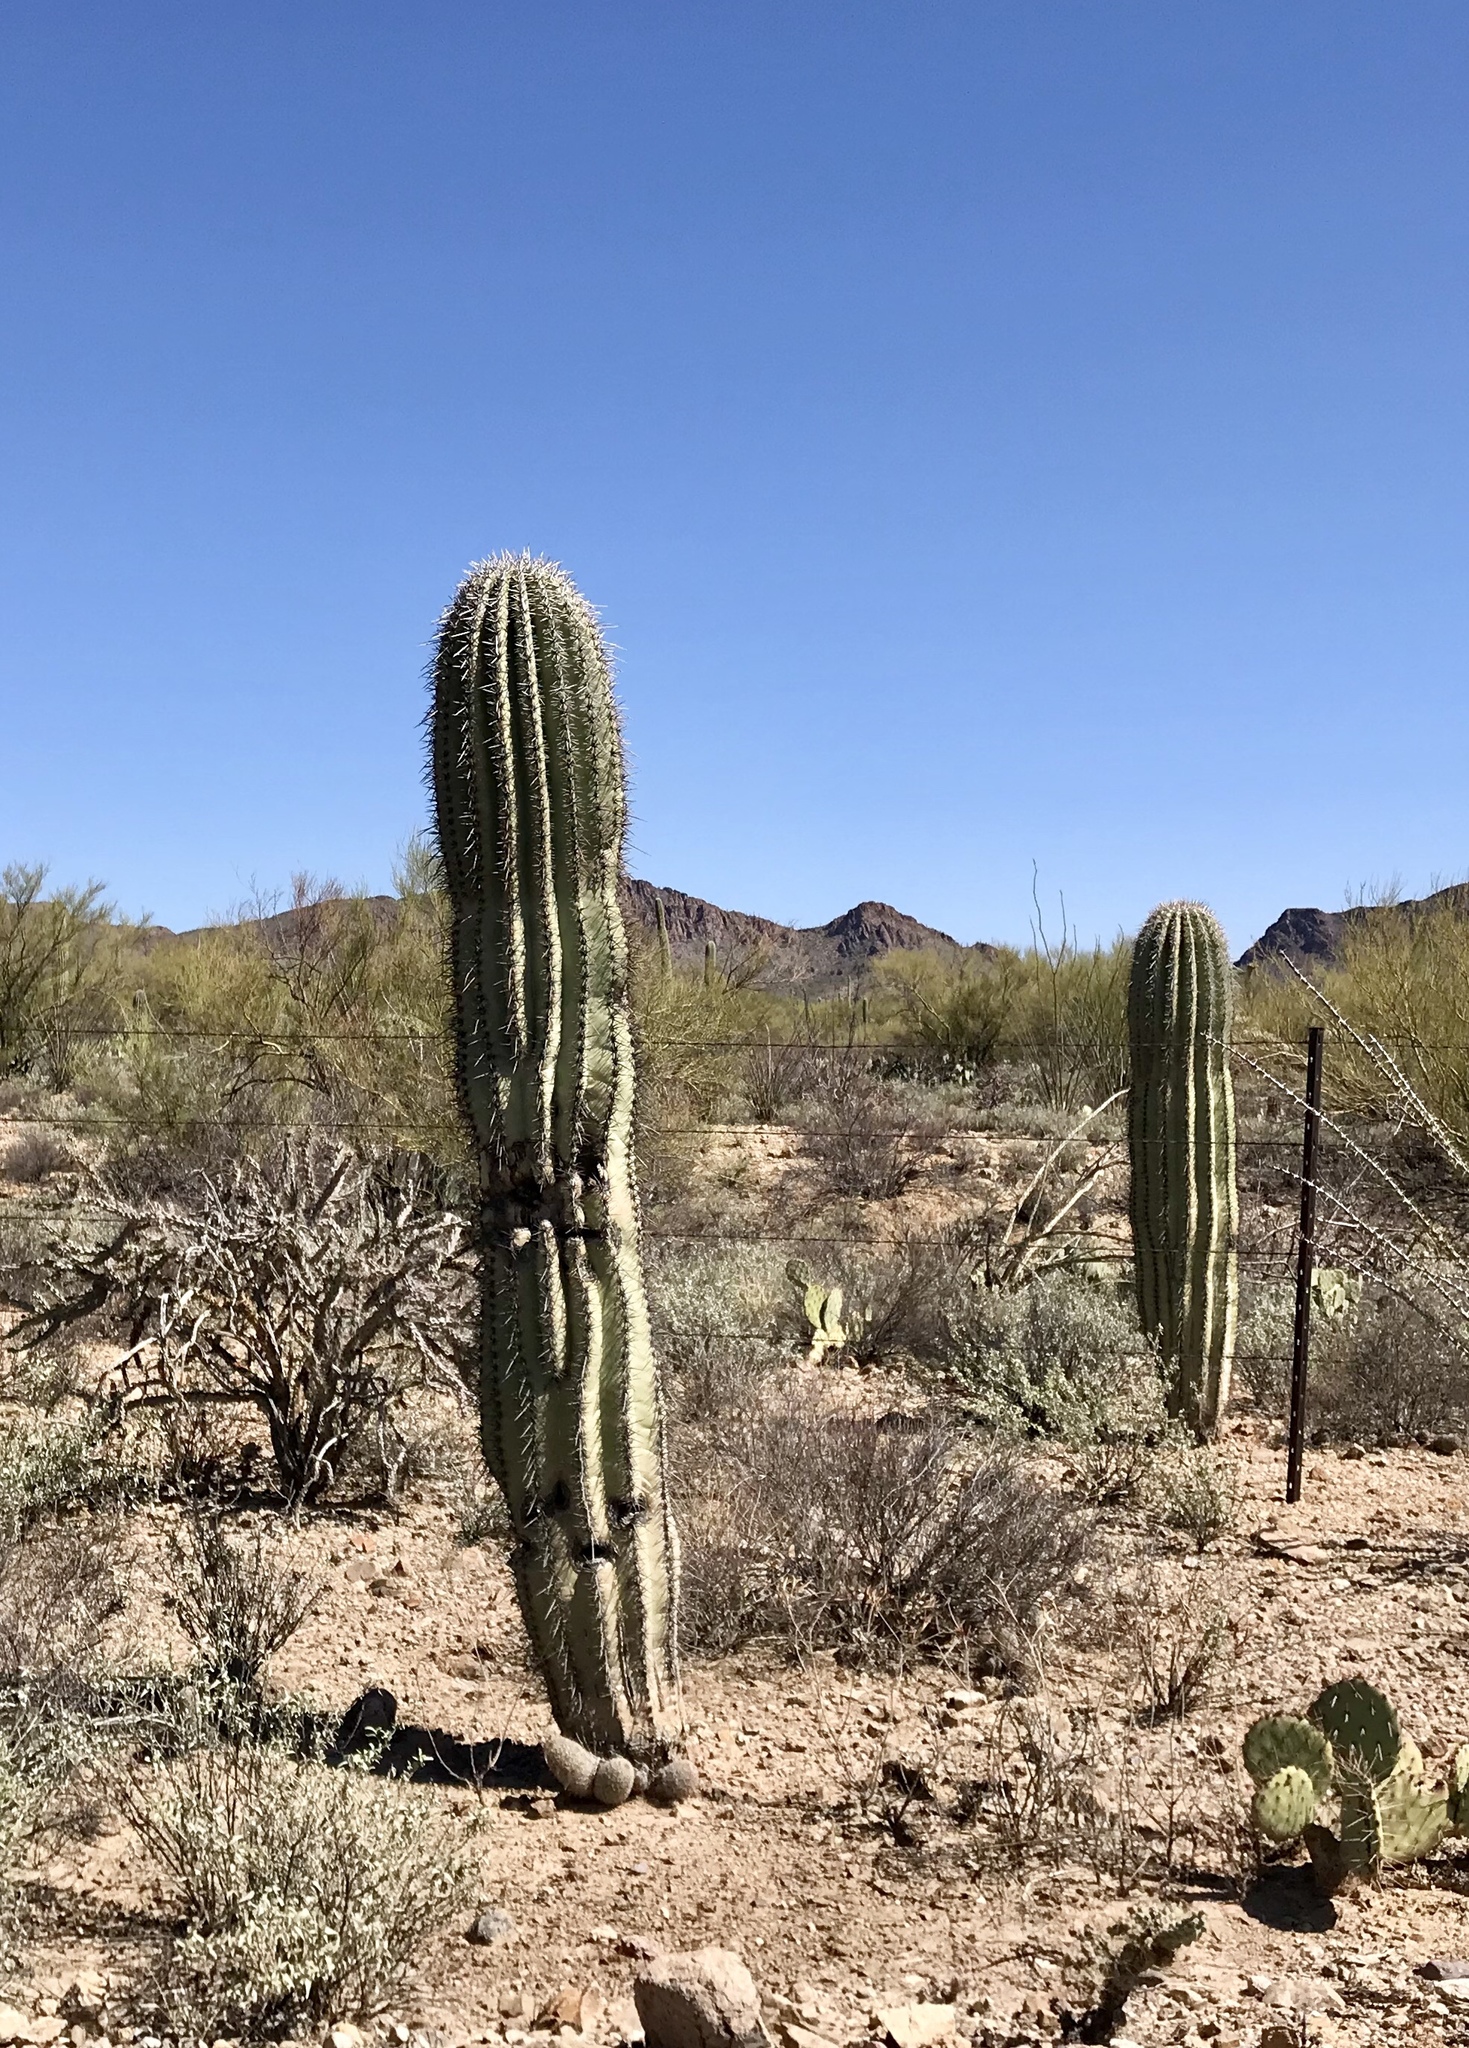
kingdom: Plantae
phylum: Tracheophyta
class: Magnoliopsida
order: Caryophyllales
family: Cactaceae
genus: Carnegiea
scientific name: Carnegiea gigantea
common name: Saguaro
